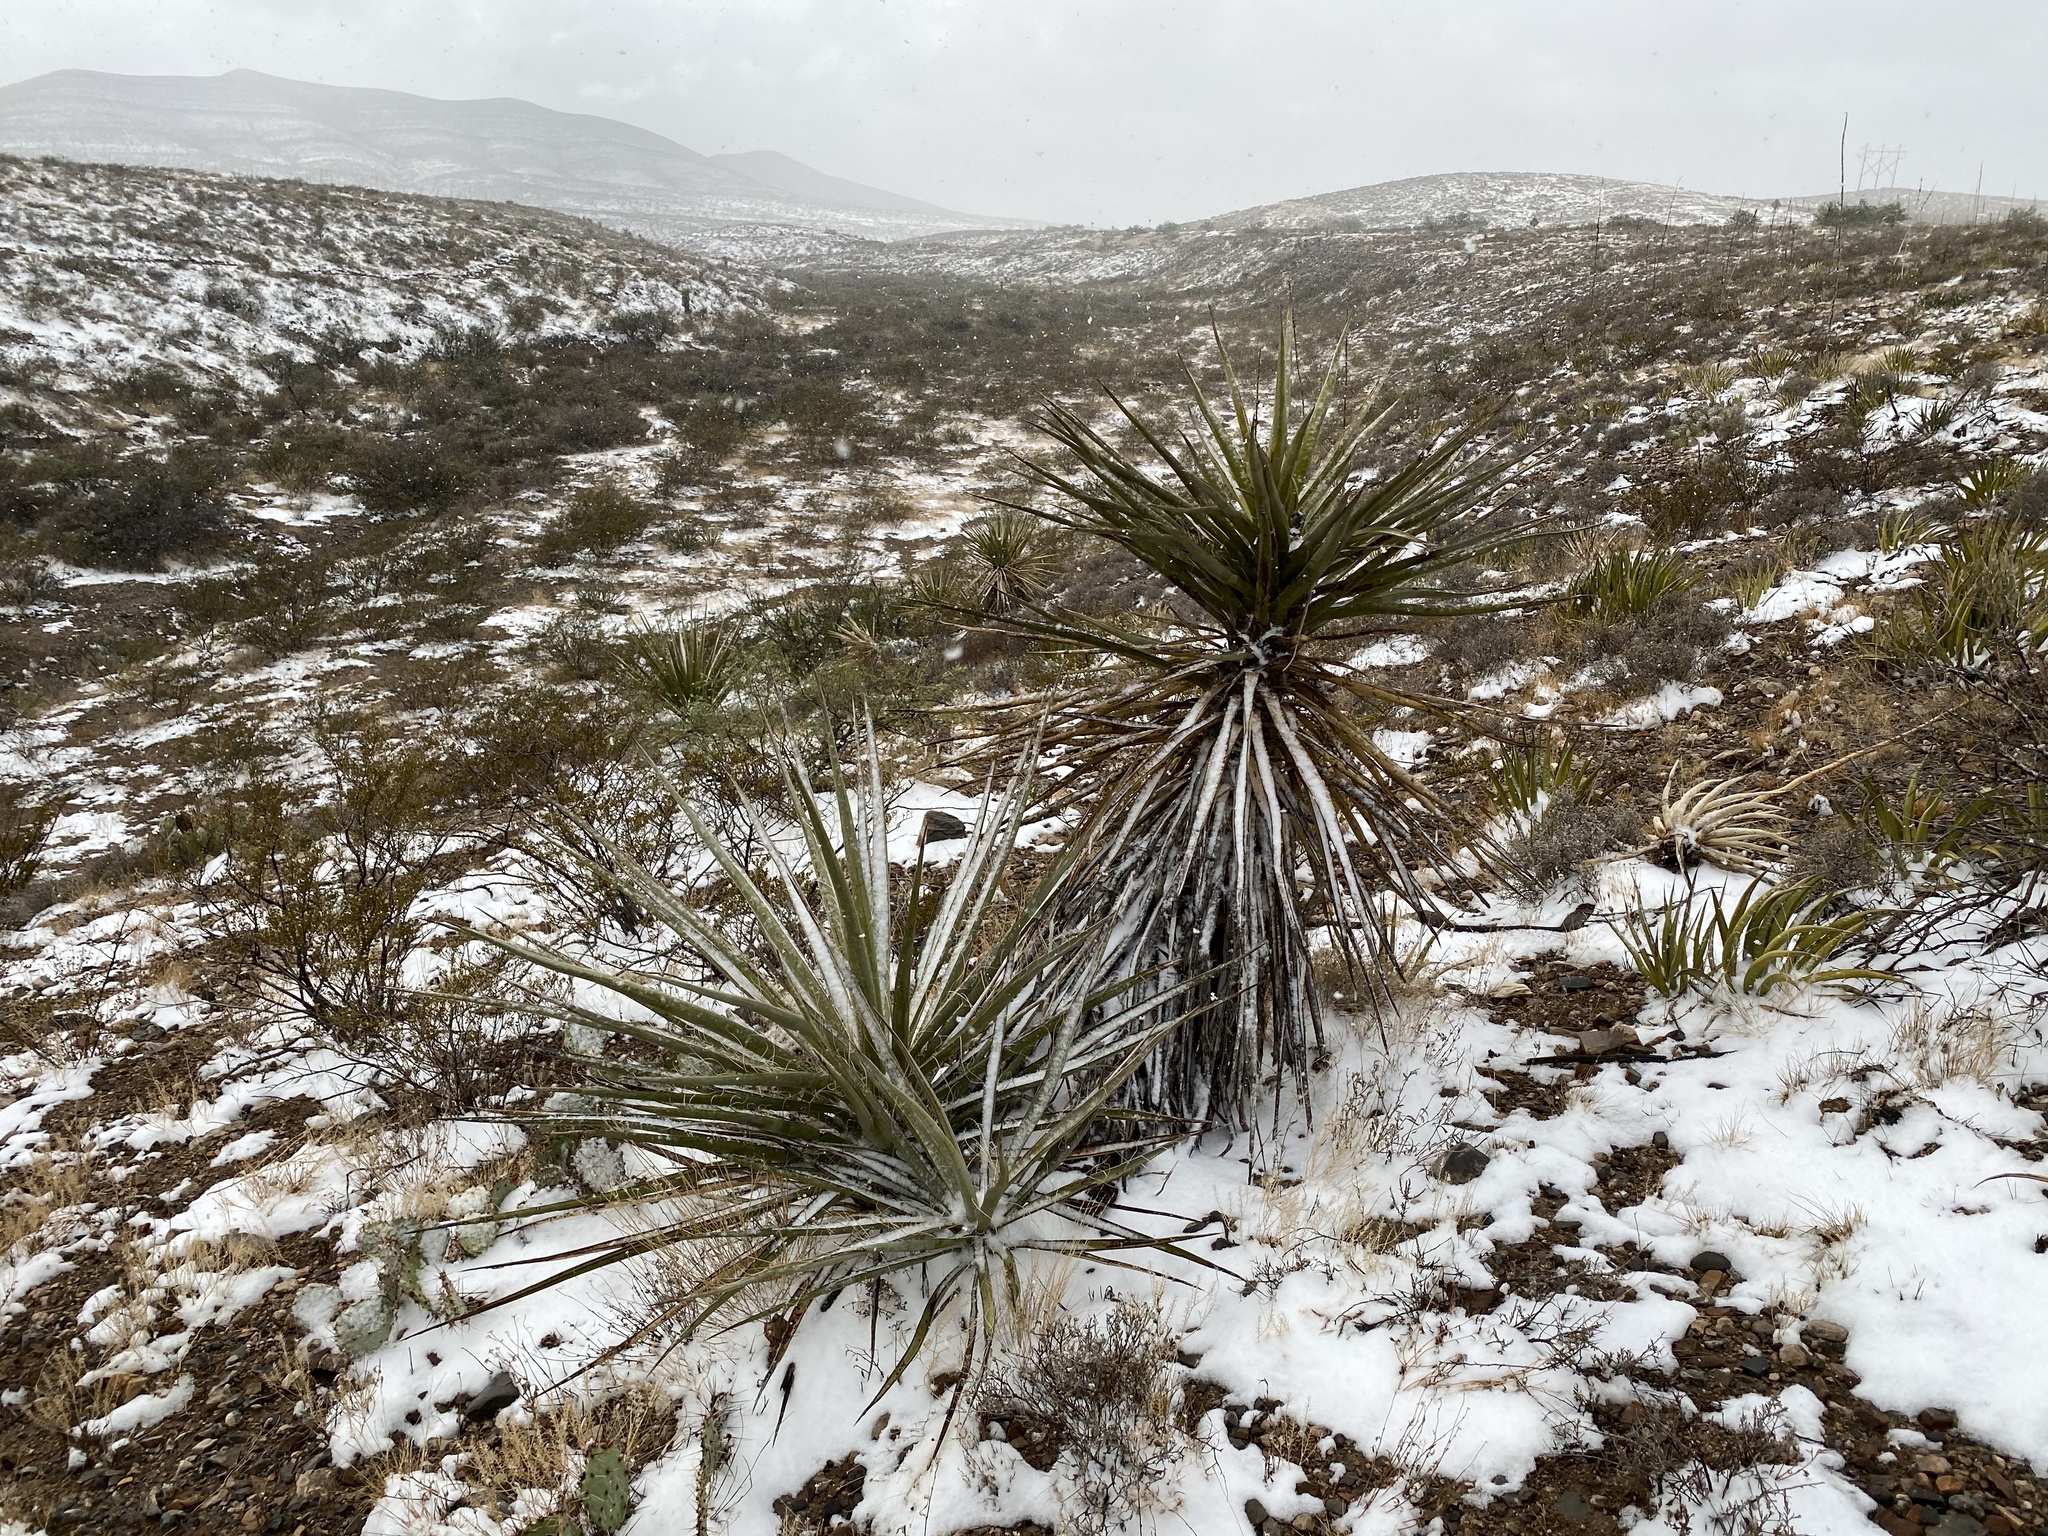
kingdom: Plantae
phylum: Tracheophyta
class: Liliopsida
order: Asparagales
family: Asparagaceae
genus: Yucca
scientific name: Yucca treculiana
